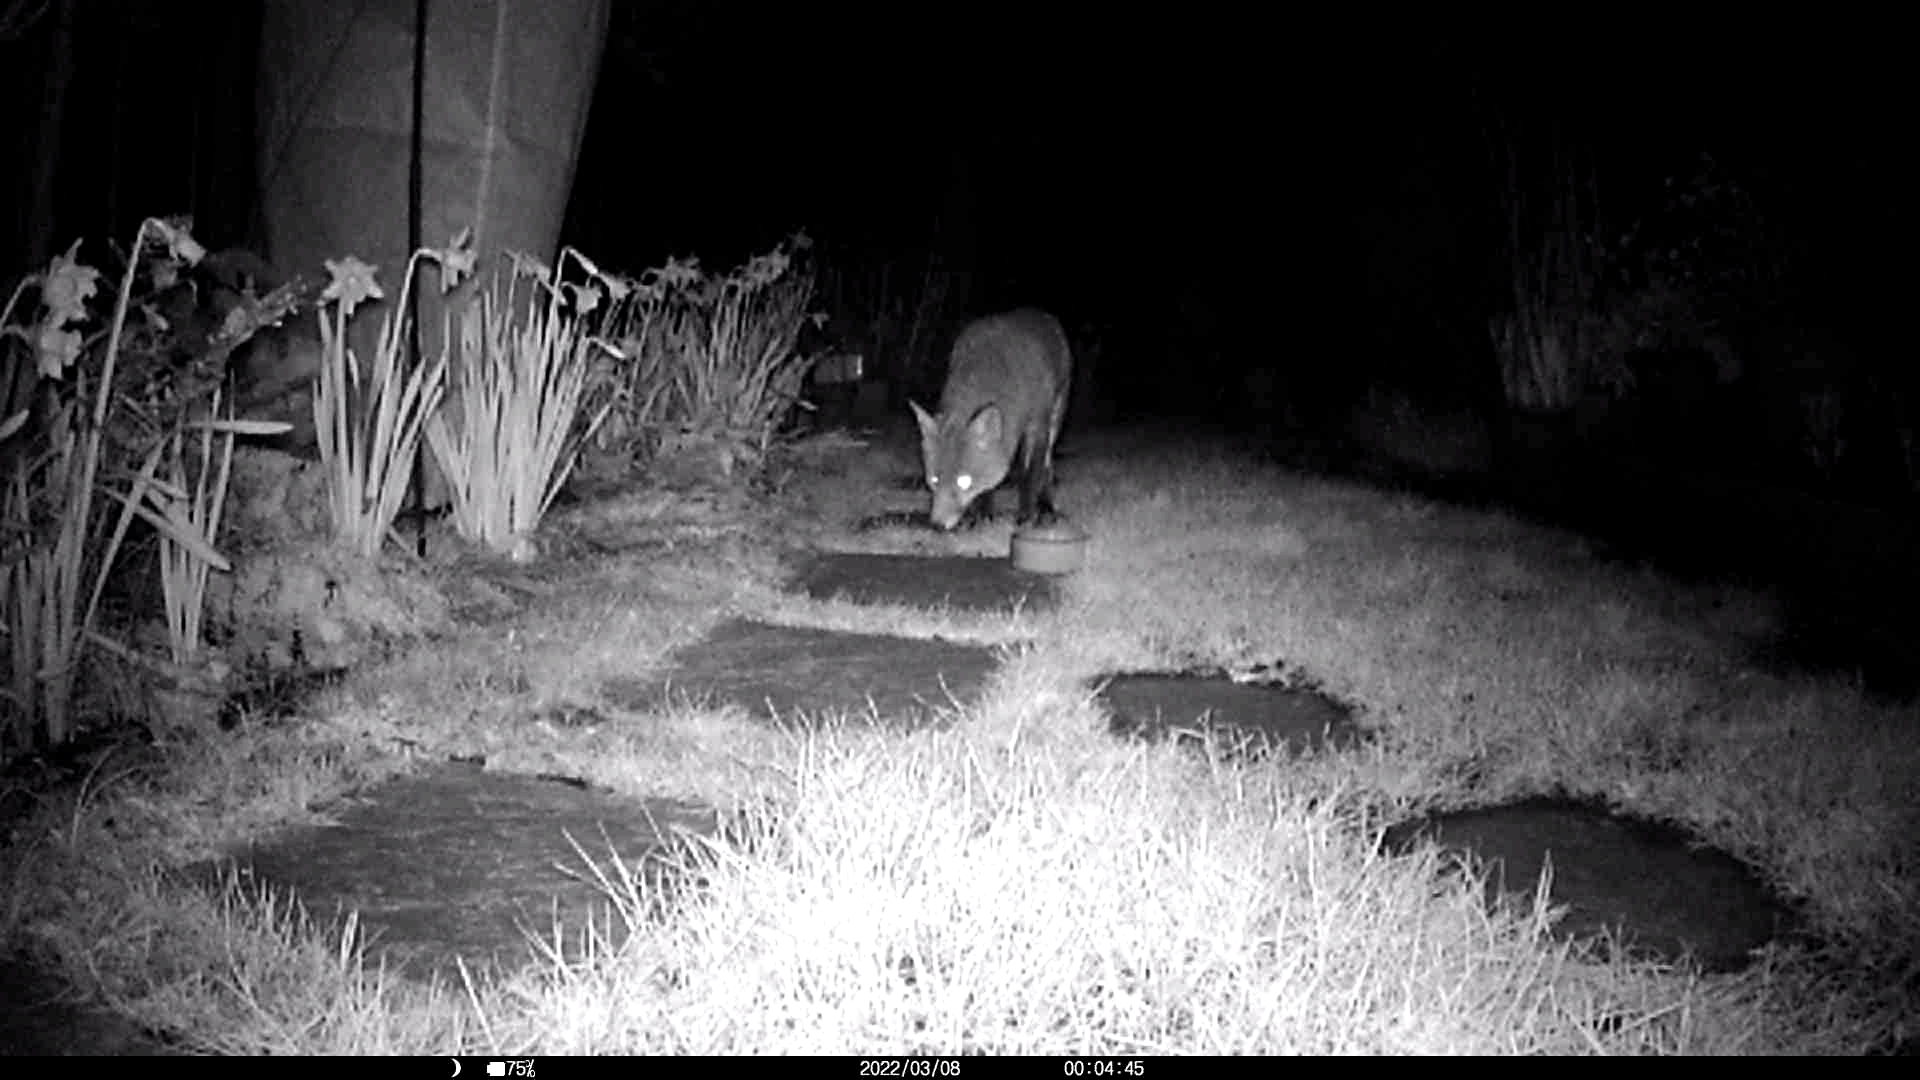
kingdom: Animalia
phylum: Chordata
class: Mammalia
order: Carnivora
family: Canidae
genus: Vulpes
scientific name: Vulpes vulpes
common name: Red fox
